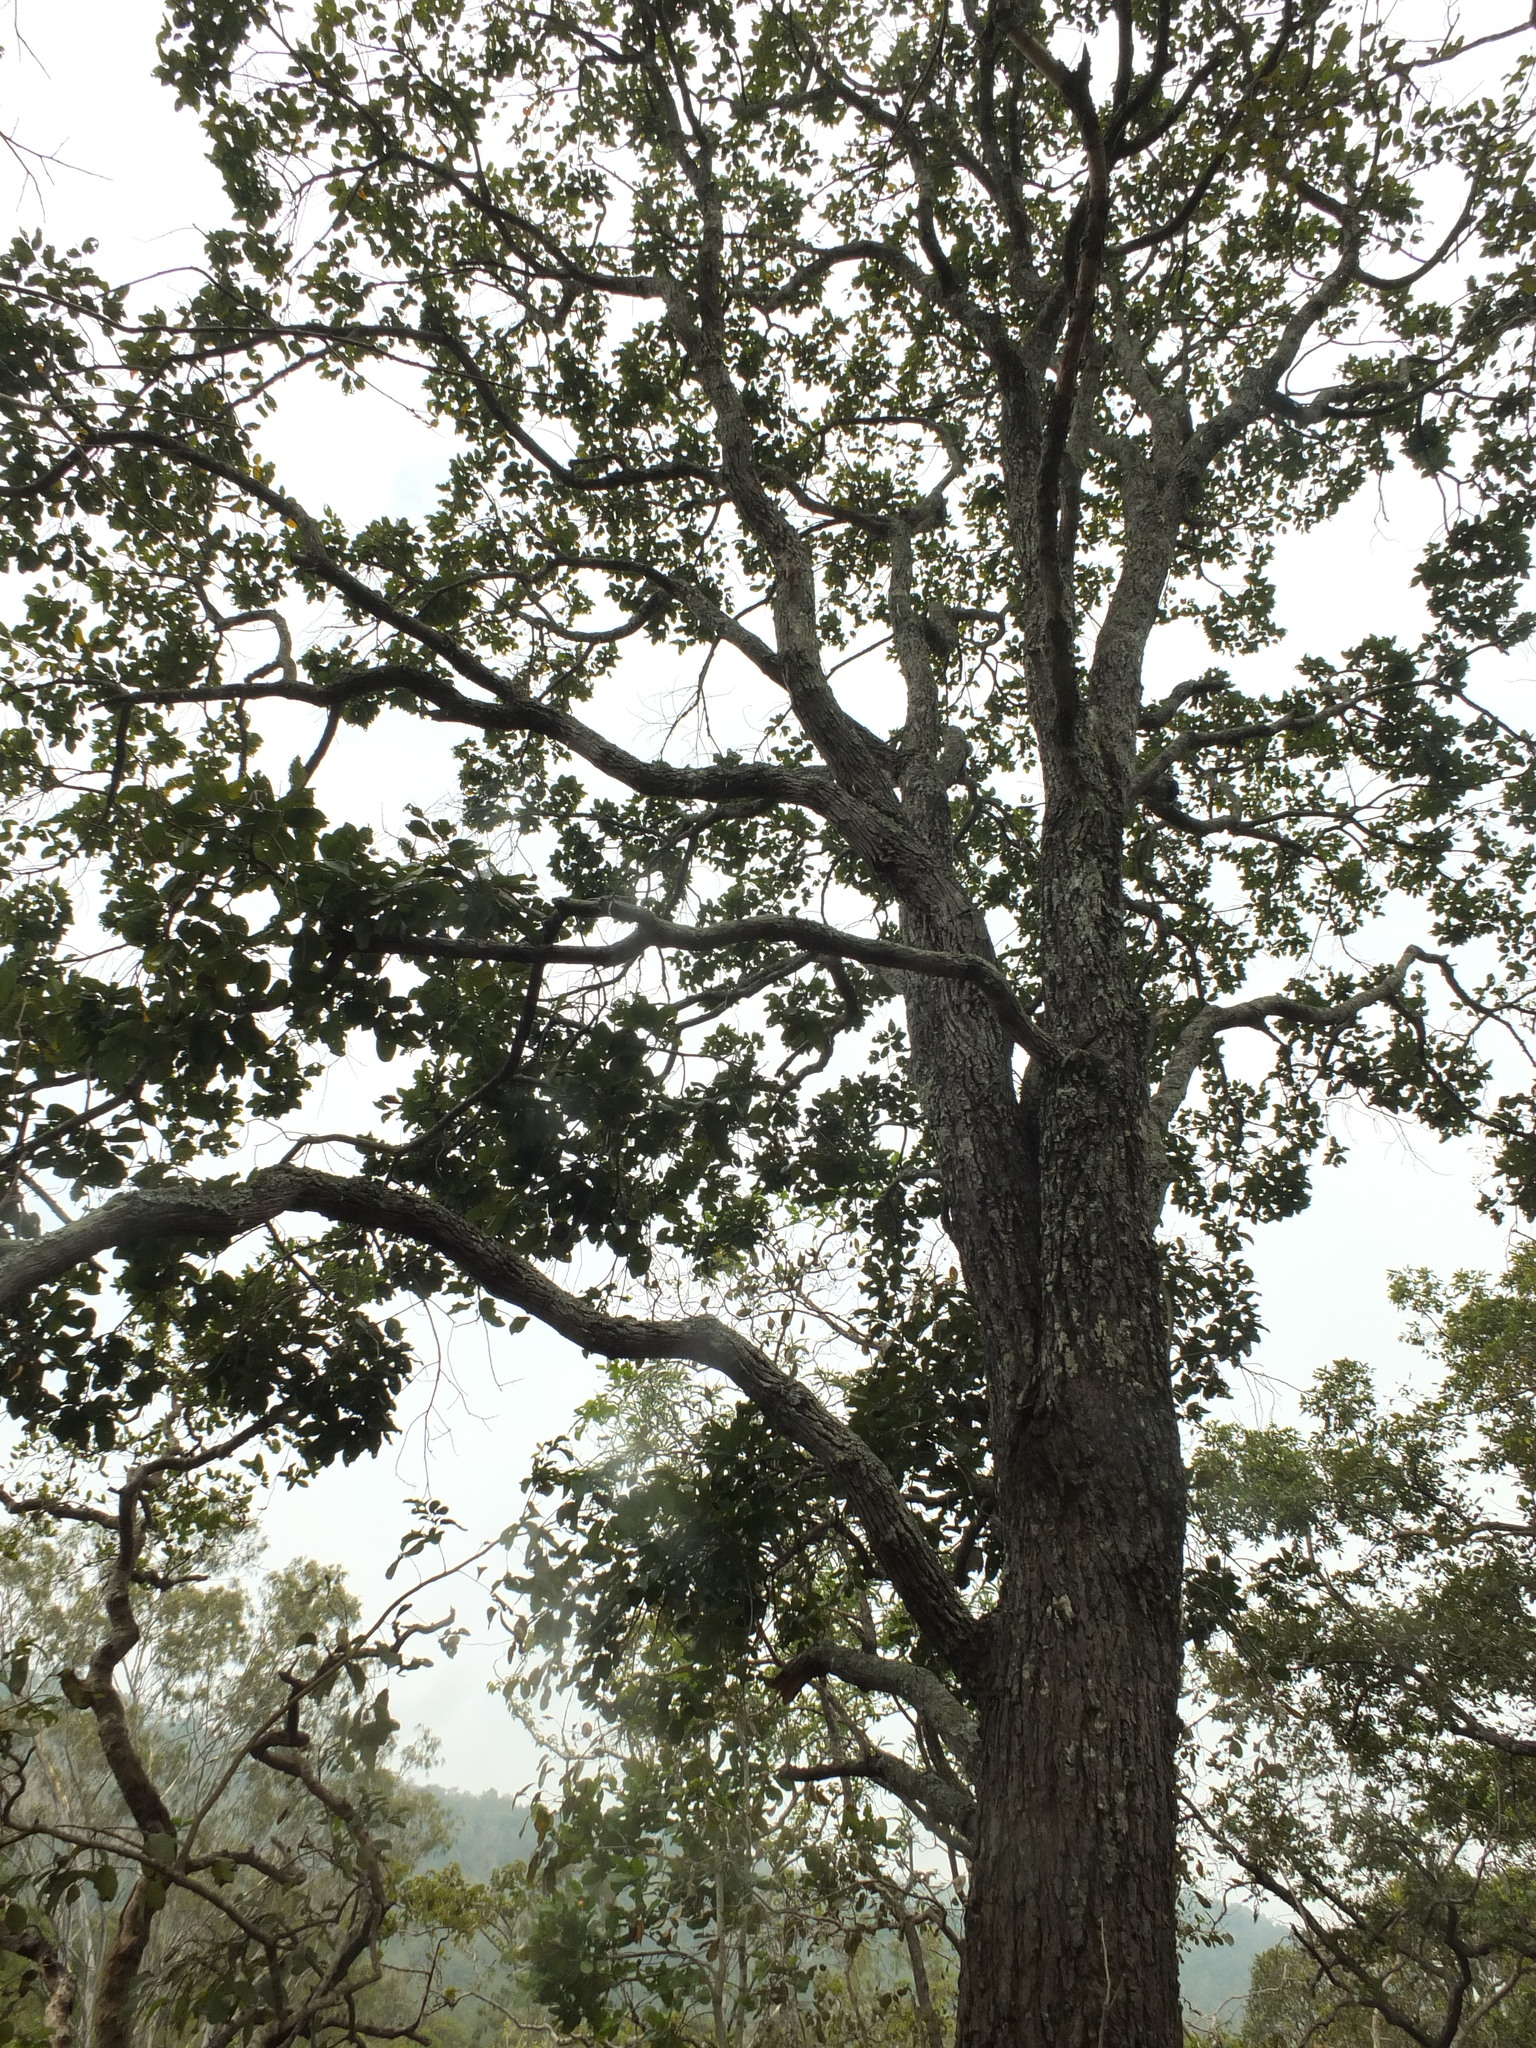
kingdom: Plantae
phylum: Tracheophyta
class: Magnoliopsida
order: Malvales
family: Dipterocarpaceae
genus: Anthoshorea
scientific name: Anthoshorea roxburghii
